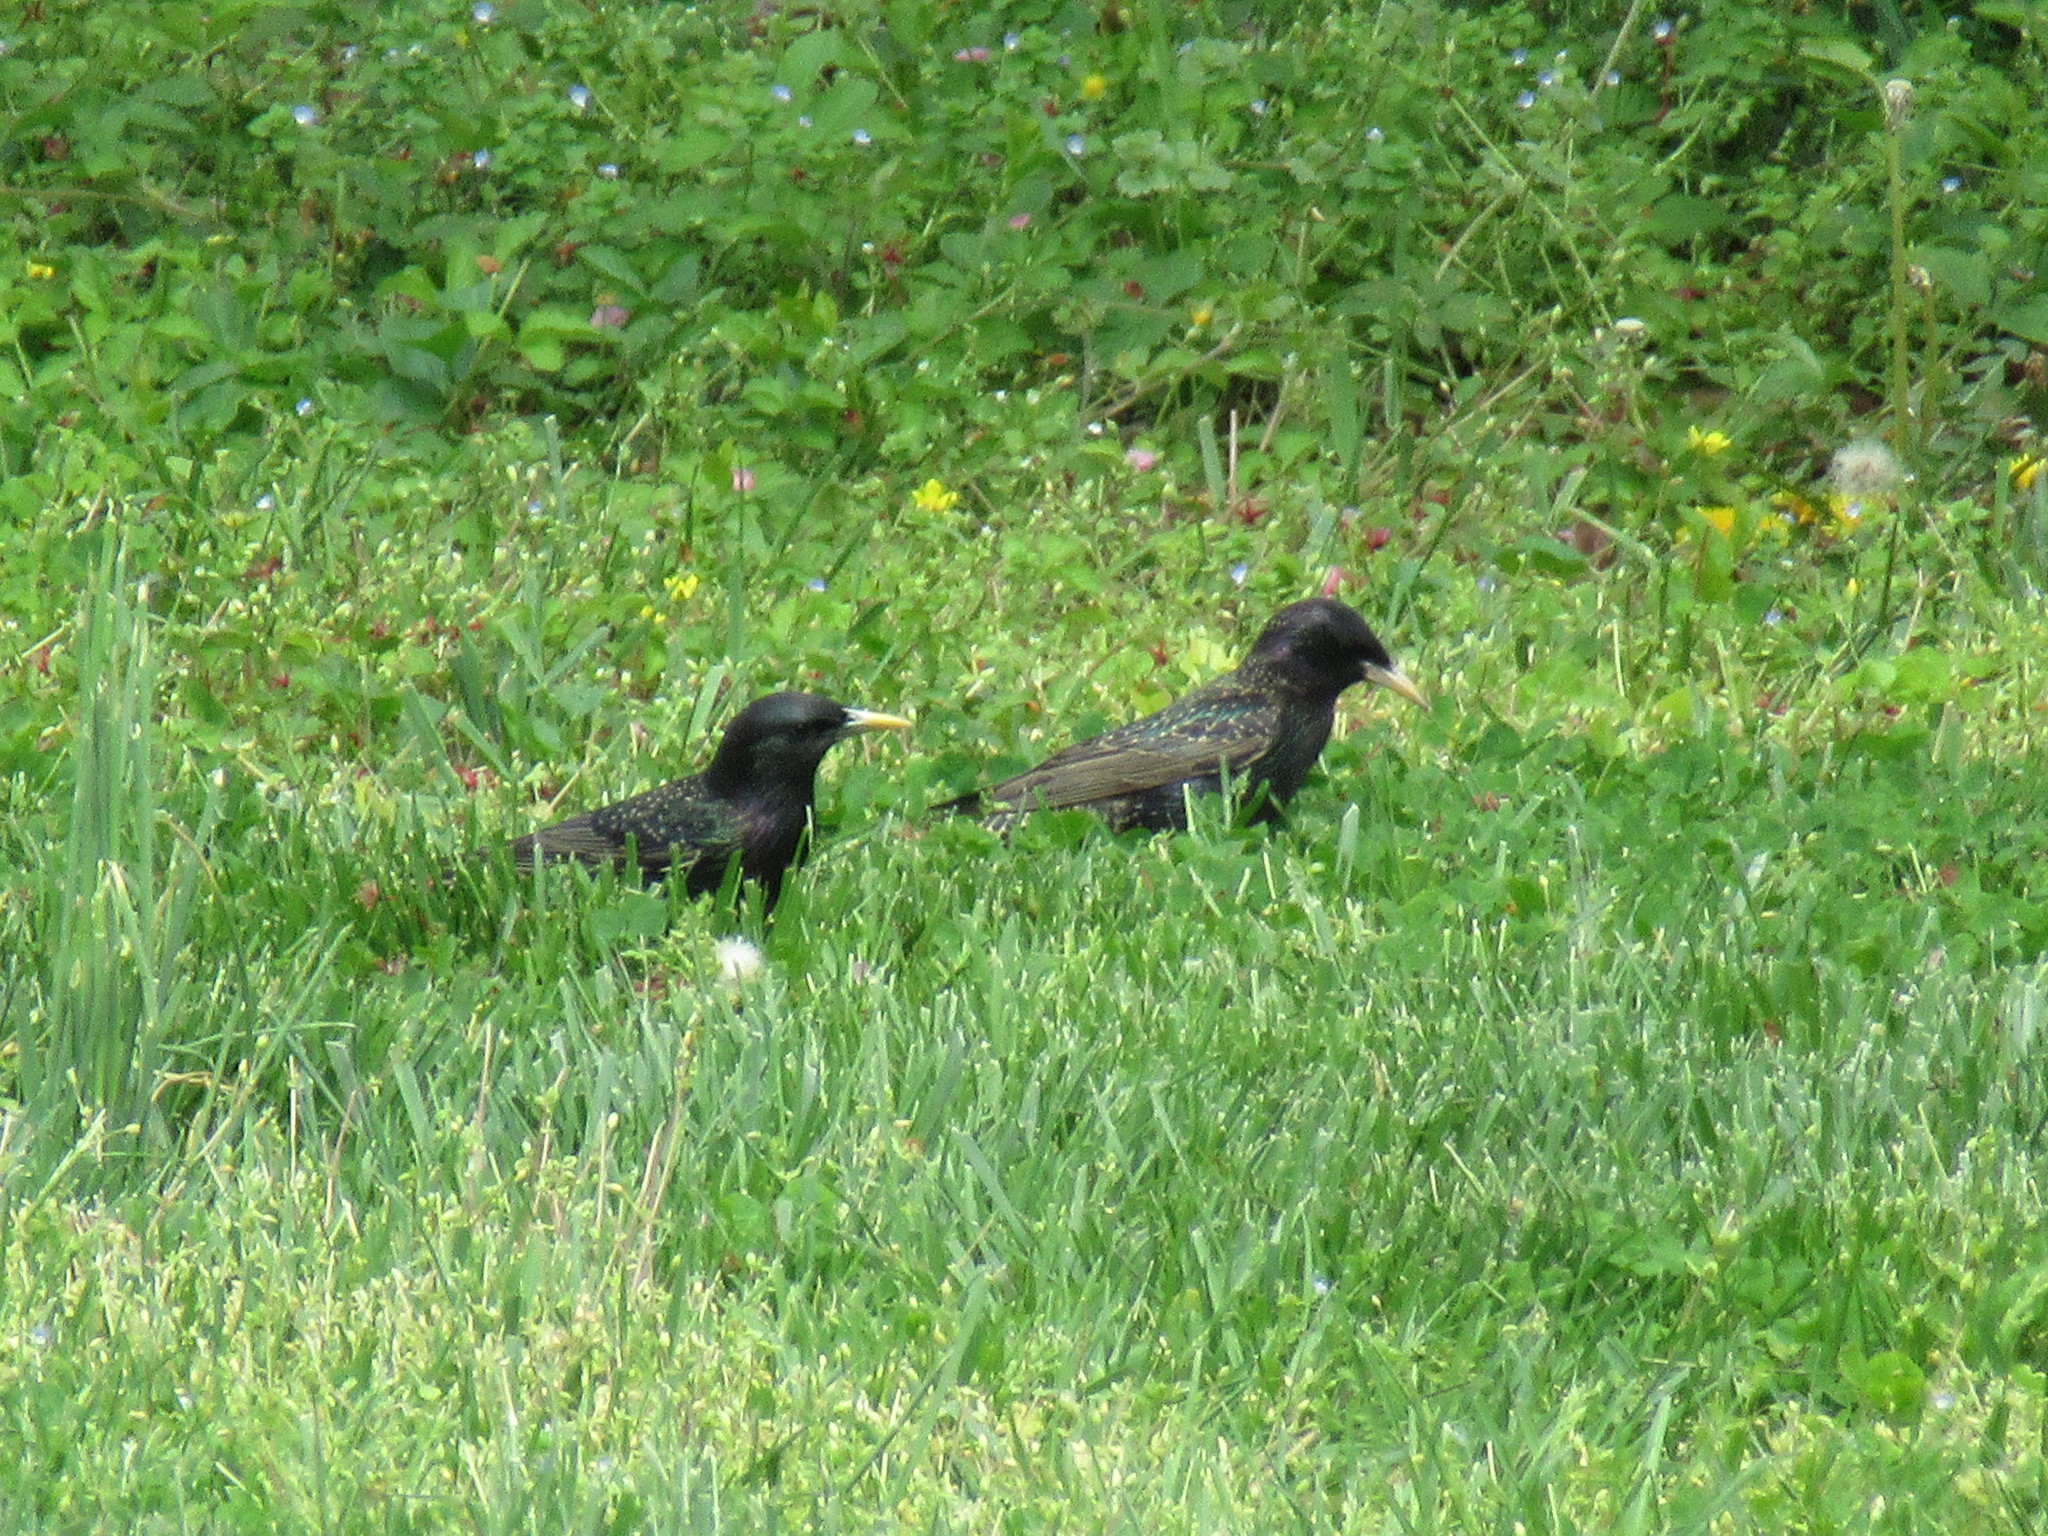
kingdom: Animalia
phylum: Chordata
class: Aves
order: Passeriformes
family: Sturnidae
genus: Sturnus
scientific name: Sturnus vulgaris
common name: Common starling
